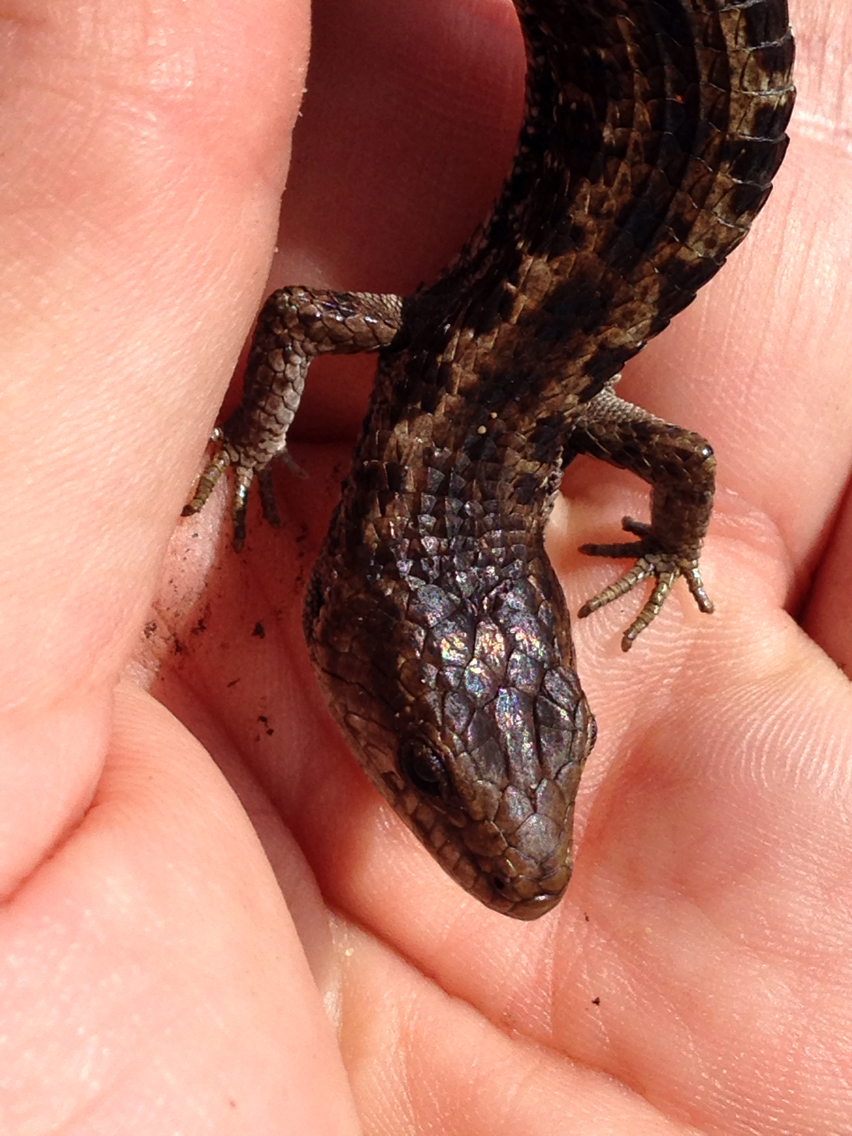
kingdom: Animalia
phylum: Chordata
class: Squamata
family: Anguidae
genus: Elgaria
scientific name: Elgaria coerulea
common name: Northern alligator lizard
